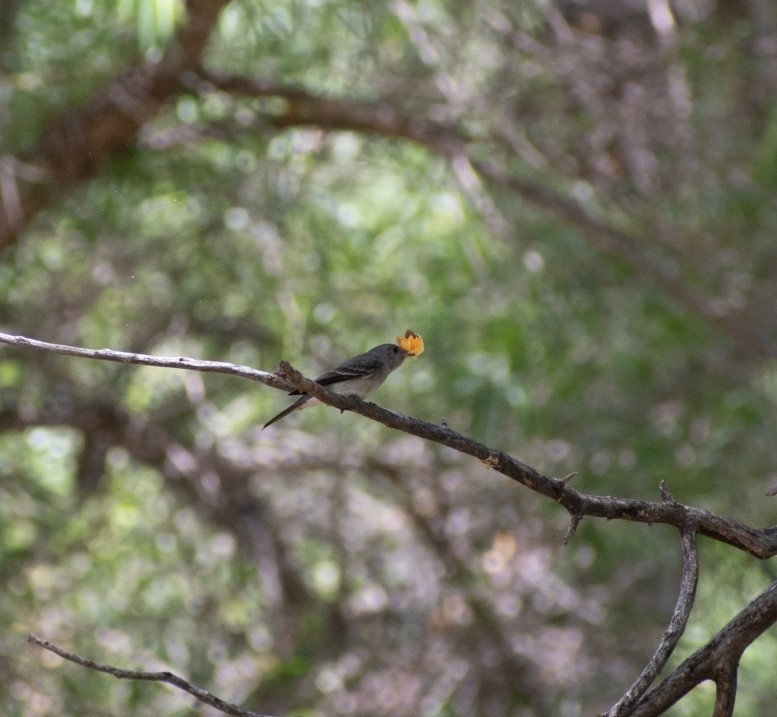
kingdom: Animalia
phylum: Chordata
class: Aves
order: Passeriformes
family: Tyrannidae
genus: Contopus
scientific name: Contopus sordidulus
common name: Western wood-pewee
